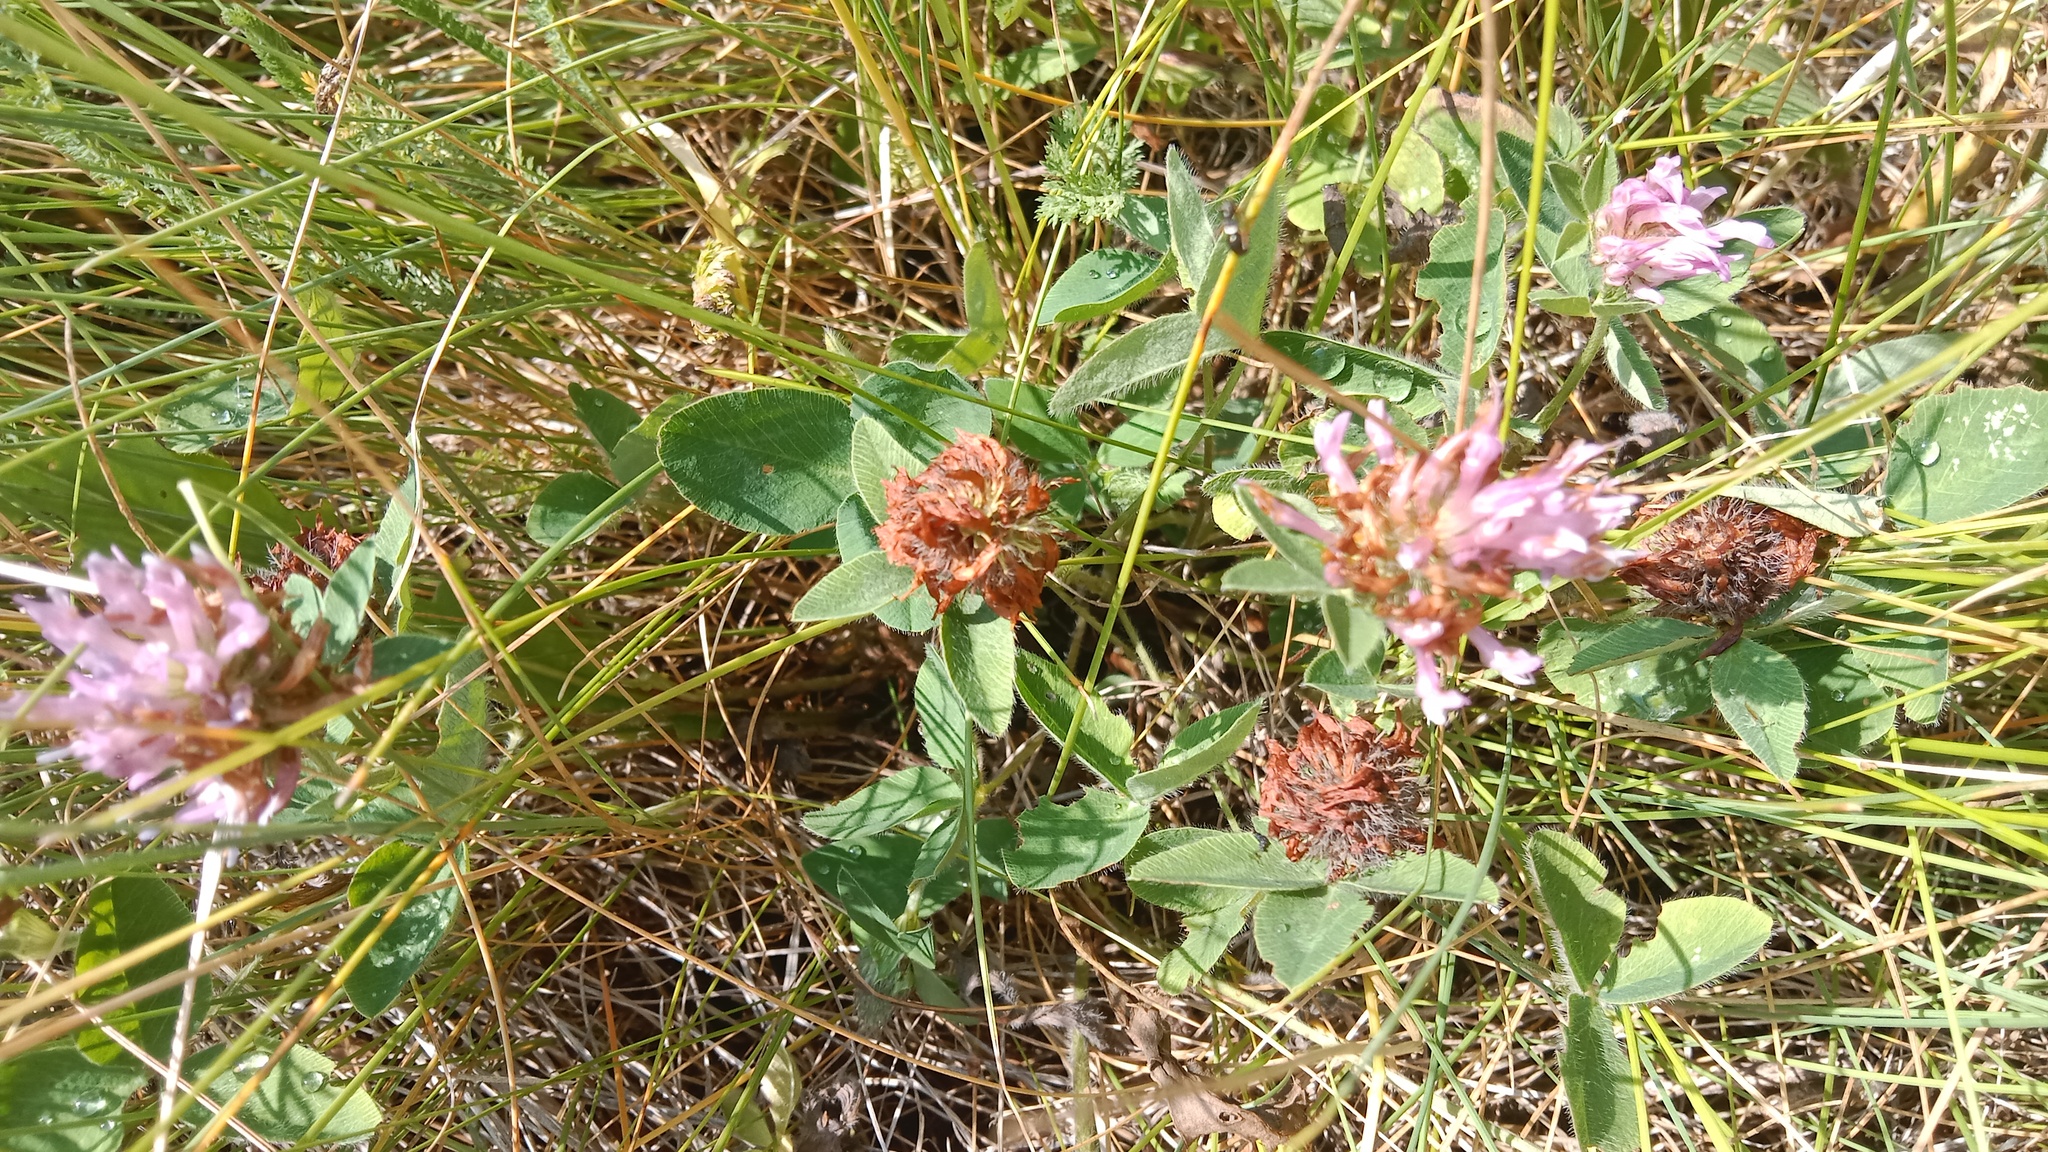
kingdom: Plantae
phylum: Tracheophyta
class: Magnoliopsida
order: Fabales
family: Fabaceae
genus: Trifolium
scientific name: Trifolium pratense
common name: Red clover
